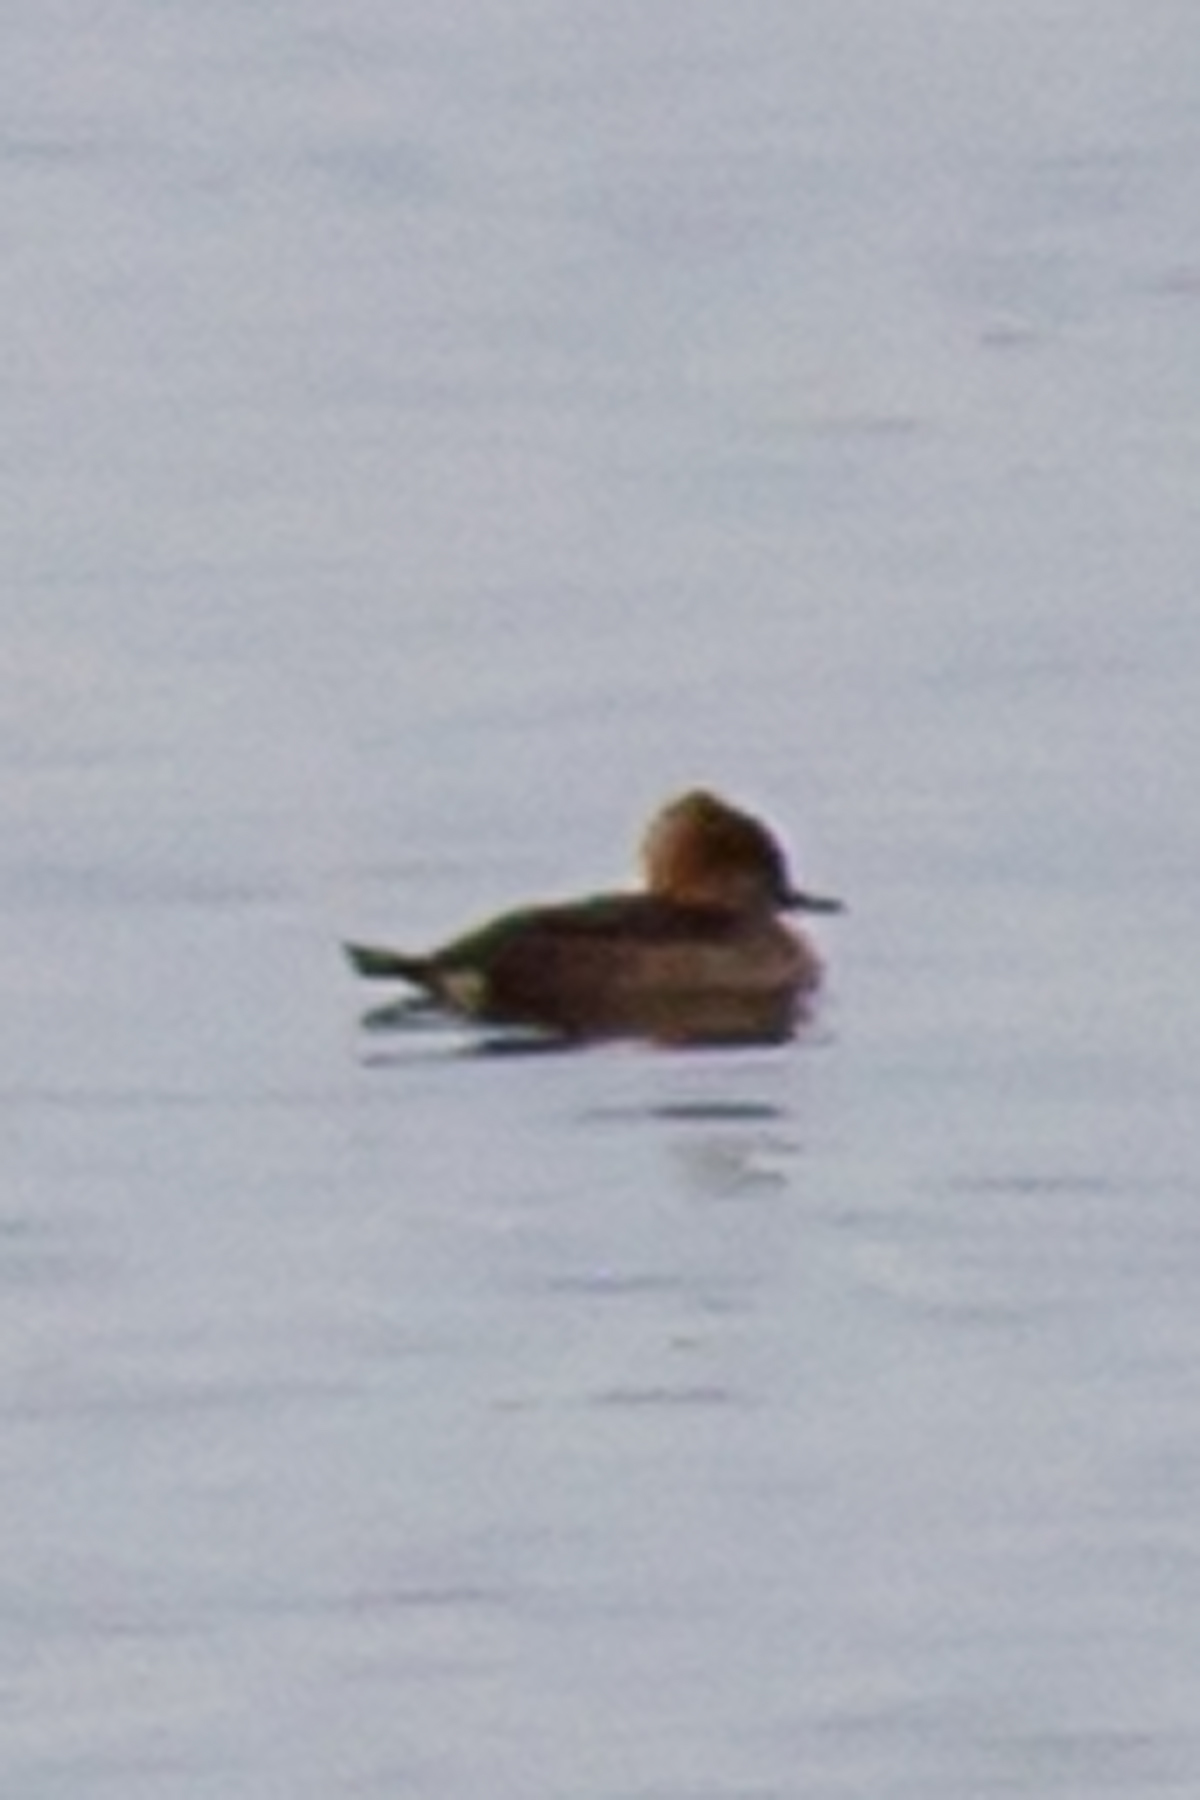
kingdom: Animalia
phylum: Chordata
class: Aves
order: Anseriformes
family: Anatidae
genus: Lophodytes
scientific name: Lophodytes cucullatus
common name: Hooded merganser
